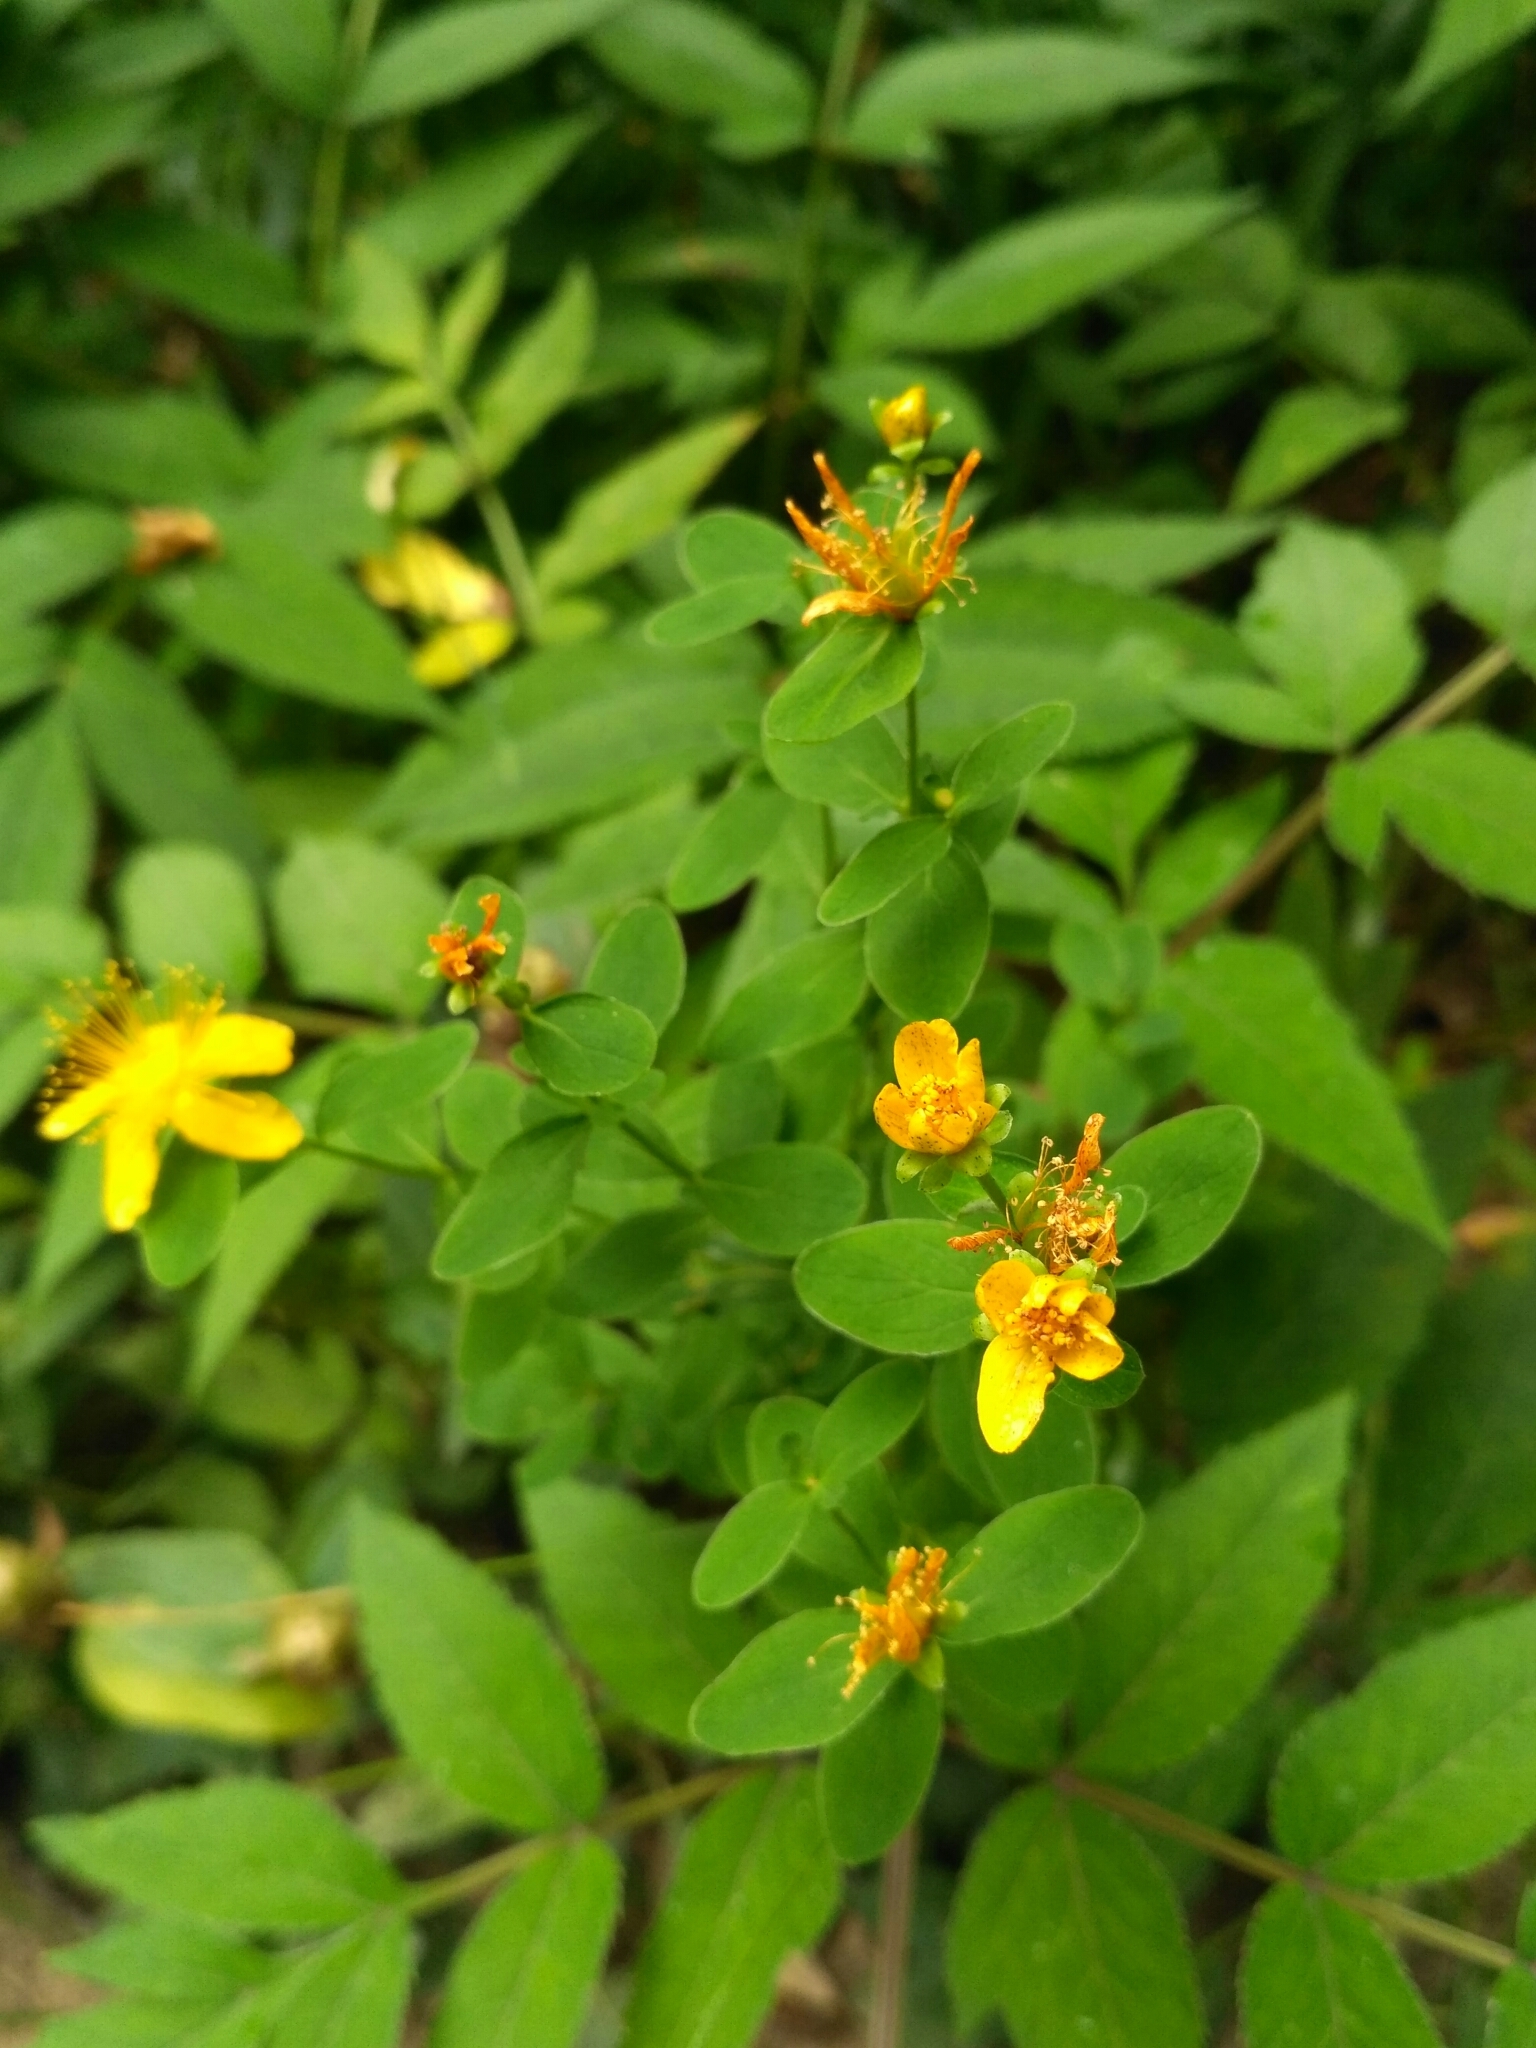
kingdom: Plantae
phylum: Tracheophyta
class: Magnoliopsida
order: Malpighiales
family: Hypericaceae
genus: Hypericum
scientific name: Hypericum maculatum
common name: Imperforate st. john's-wort
